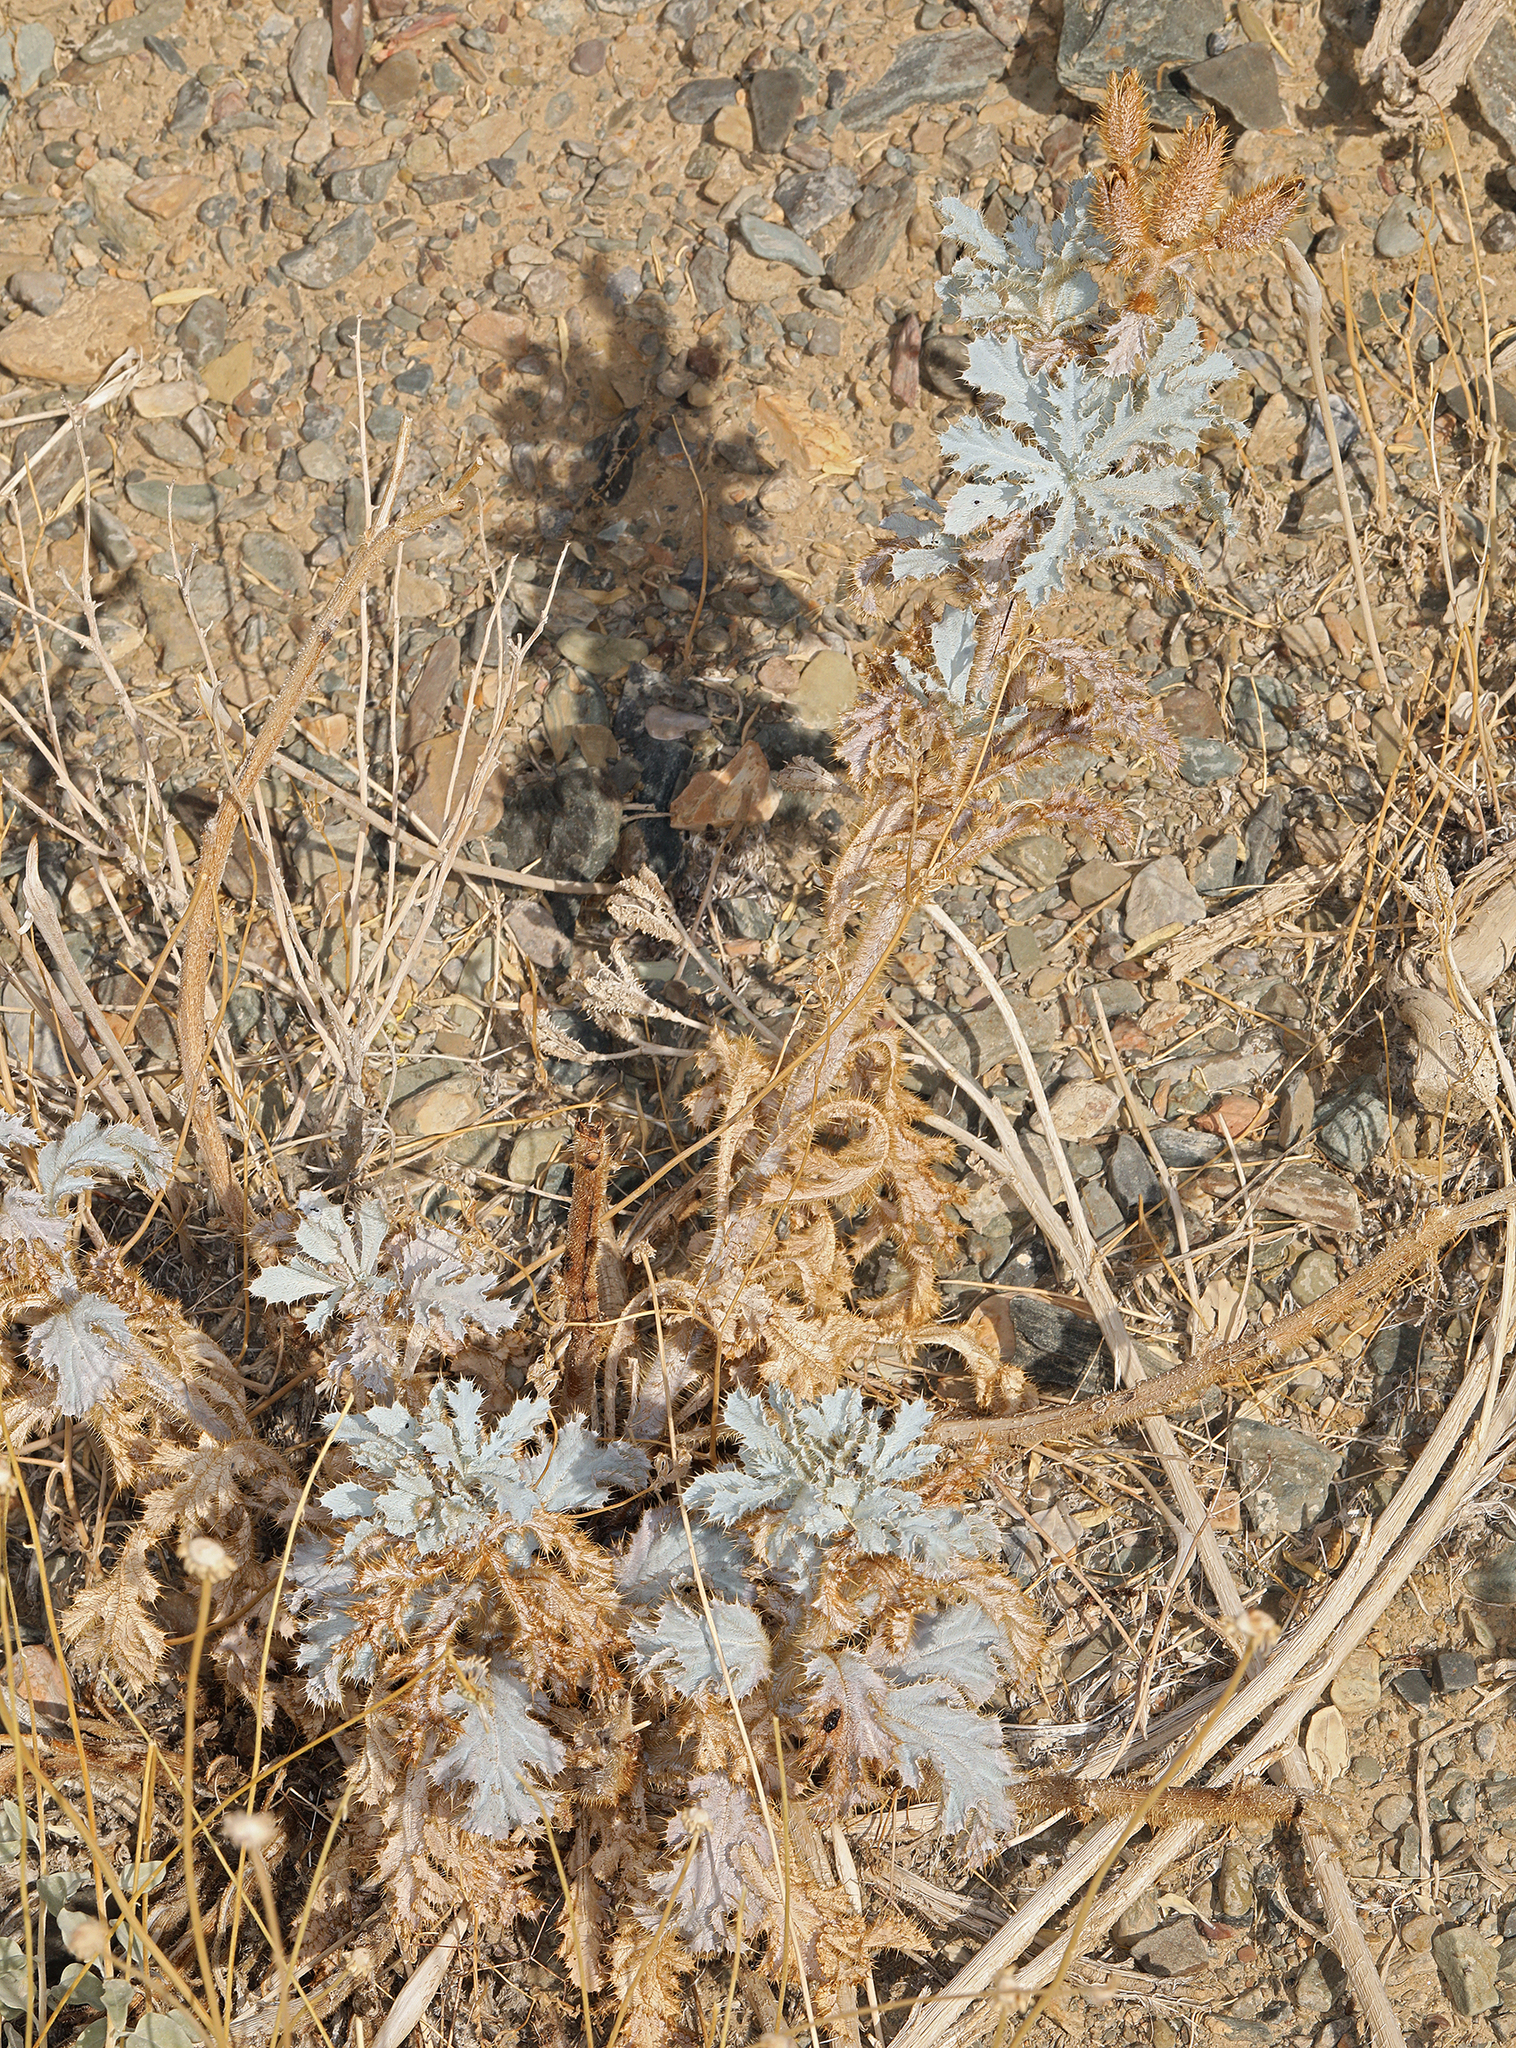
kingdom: Plantae
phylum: Tracheophyta
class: Magnoliopsida
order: Ranunculales
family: Papaveraceae
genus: Argemone
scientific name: Argemone munita
